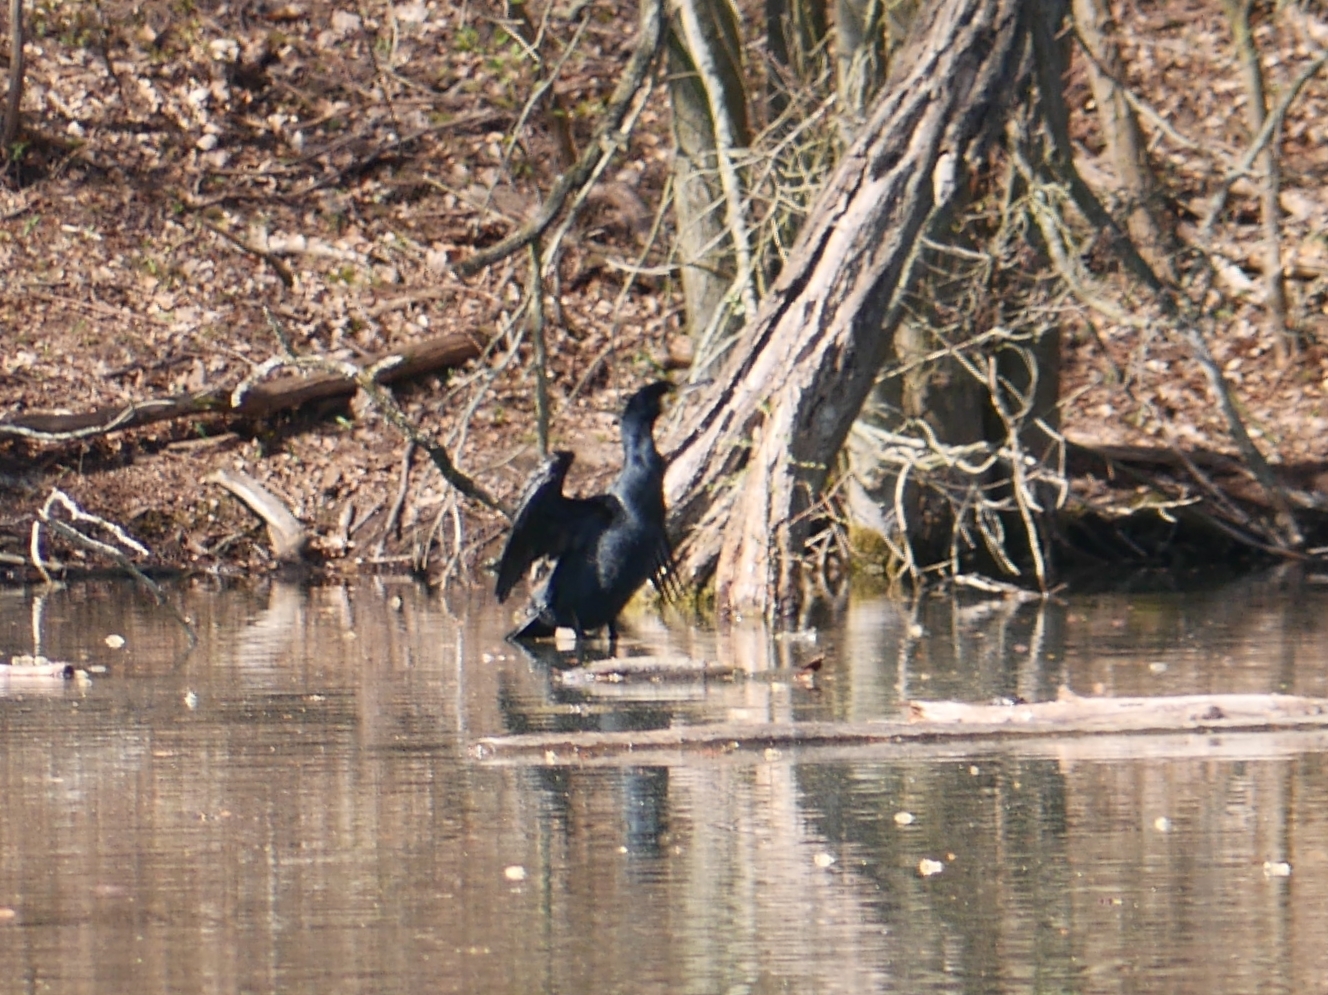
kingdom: Animalia
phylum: Chordata
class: Aves
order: Suliformes
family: Phalacrocoracidae
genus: Phalacrocorax
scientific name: Phalacrocorax carbo
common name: Great cormorant
